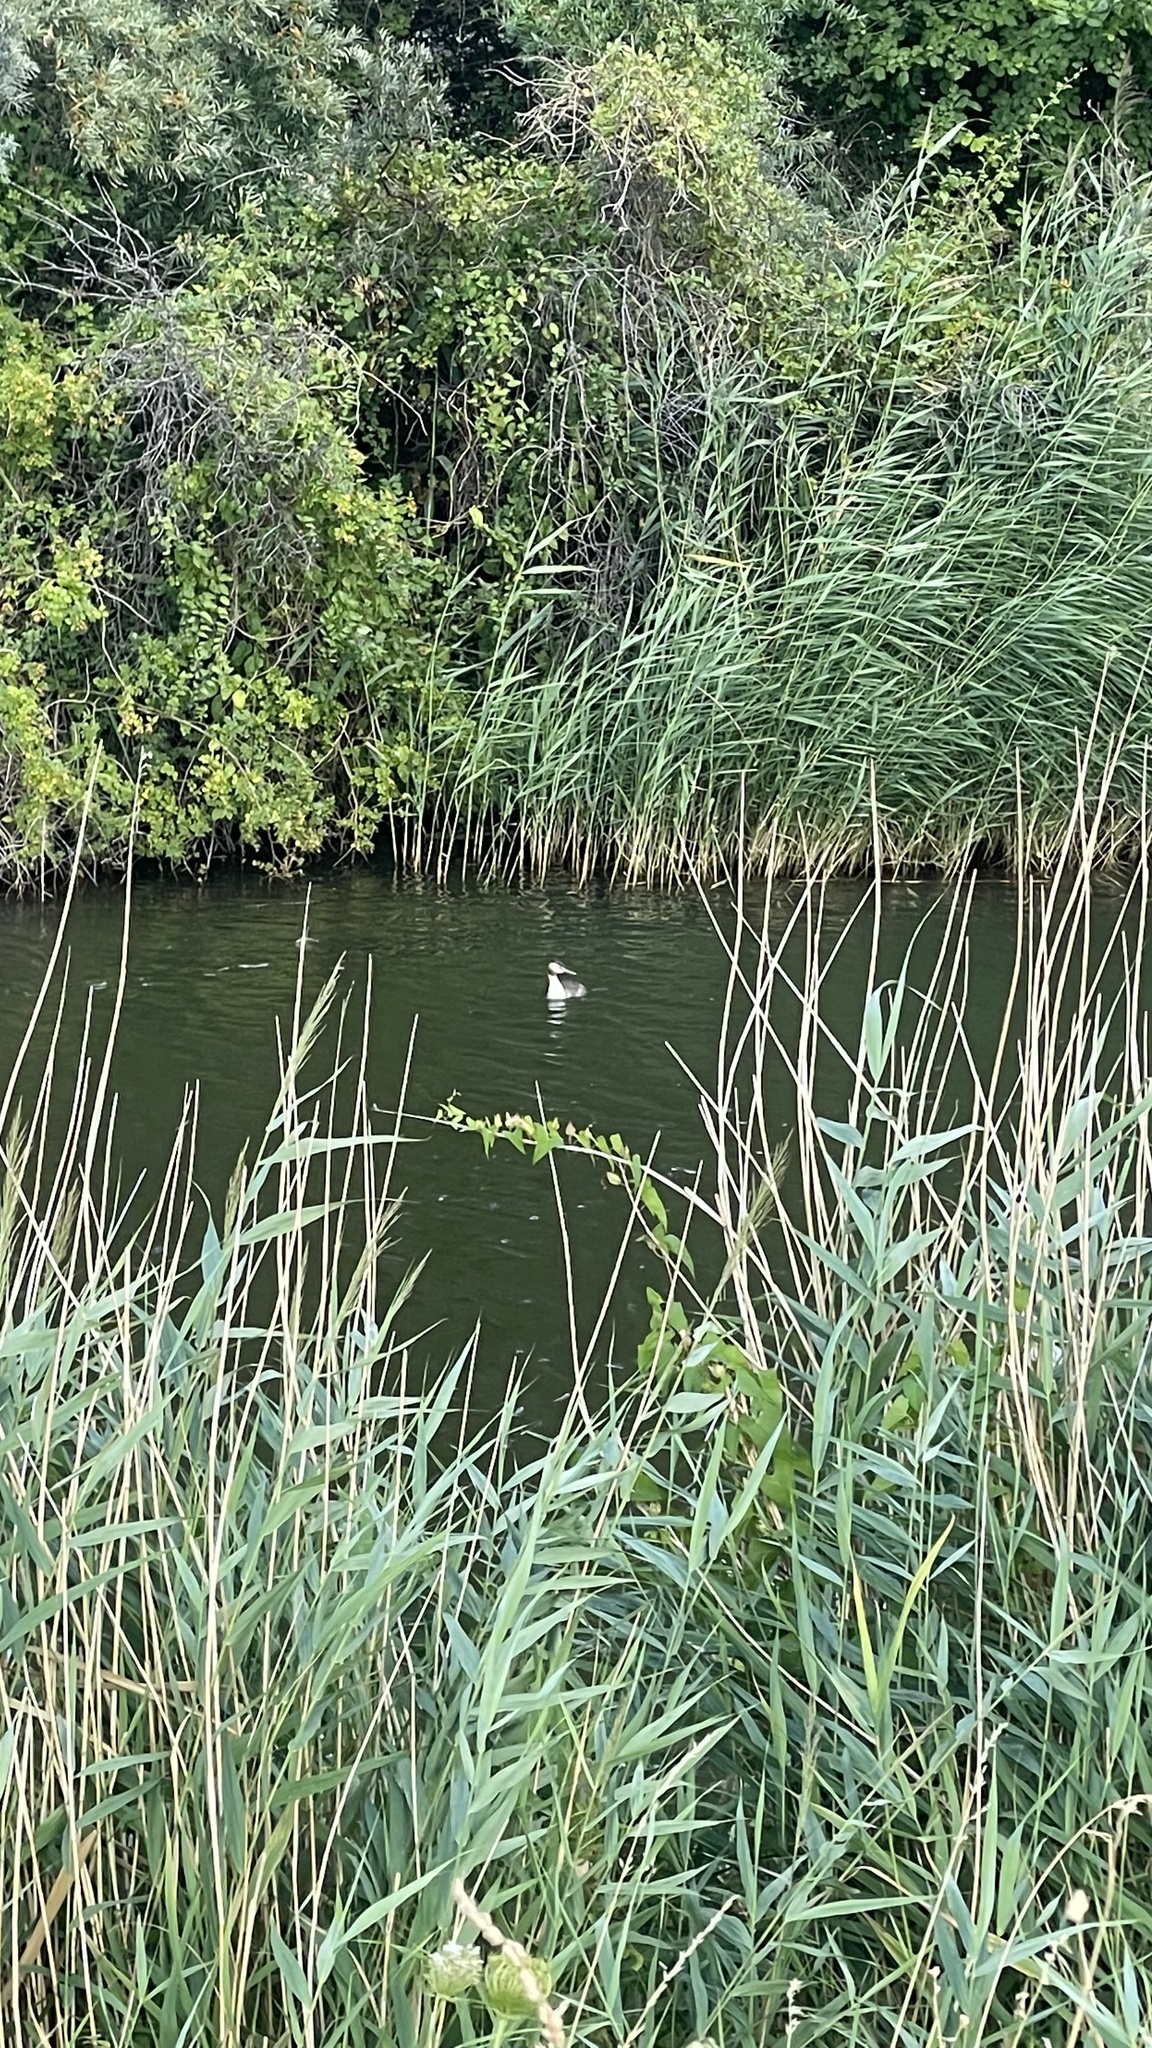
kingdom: Animalia
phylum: Chordata
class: Aves
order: Podicipediformes
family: Podicipedidae
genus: Podiceps
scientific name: Podiceps cristatus
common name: Great crested grebe
